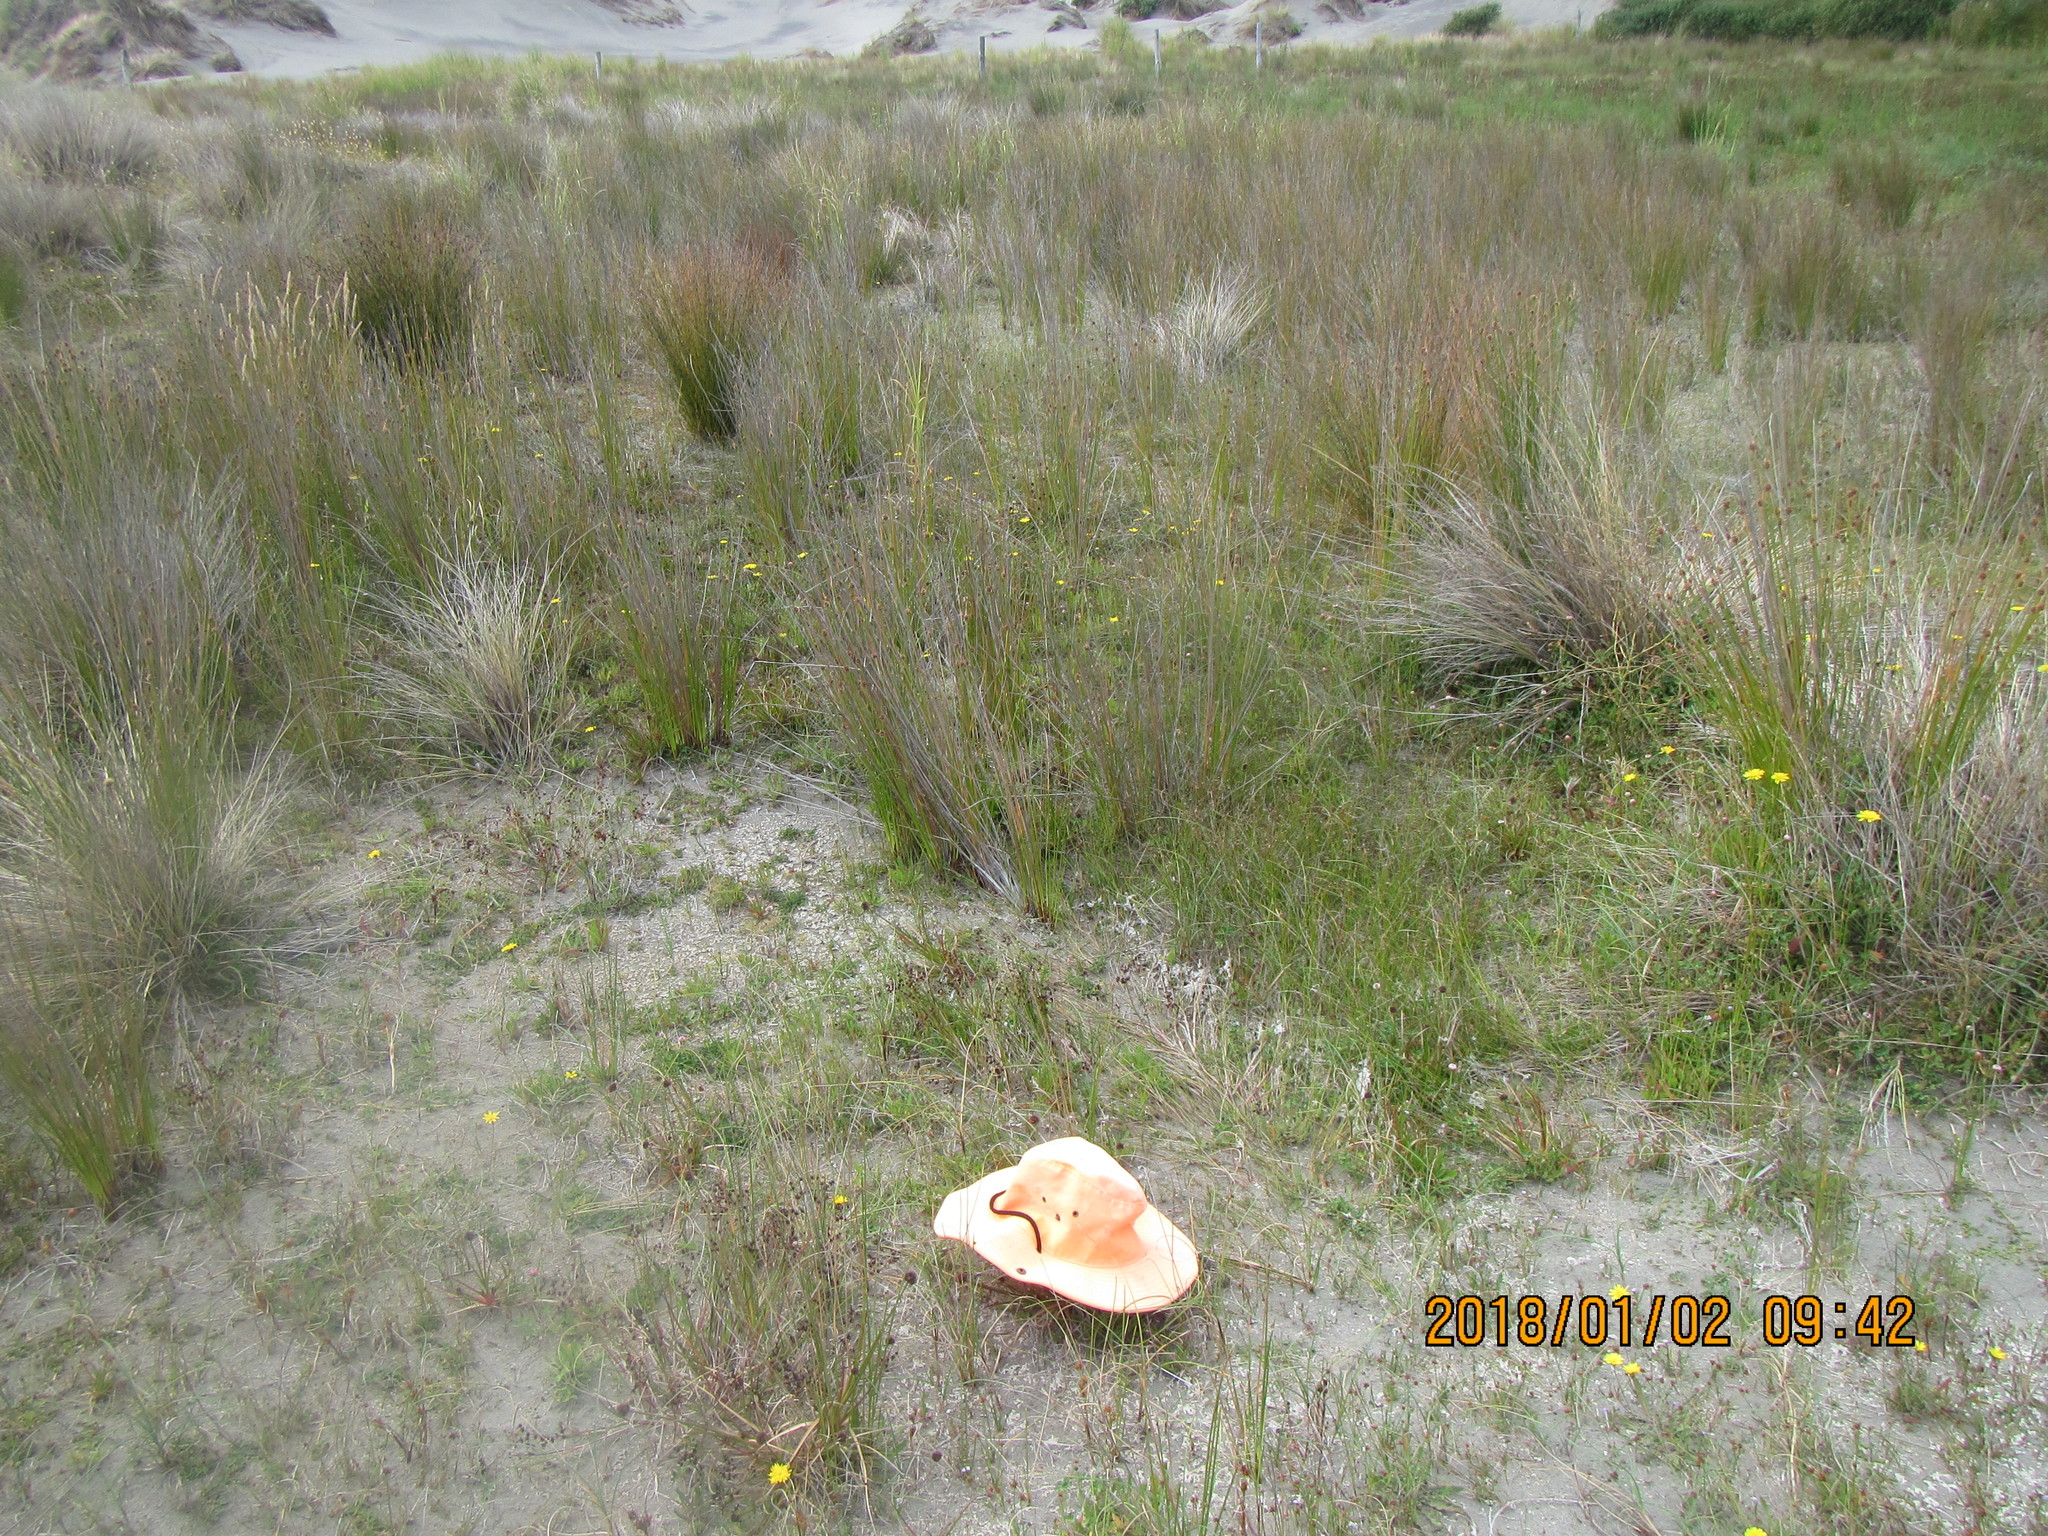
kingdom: Animalia
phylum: Arthropoda
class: Insecta
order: Coleoptera
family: Carabidae
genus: Neocicindela
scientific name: Neocicindela tuberculata
